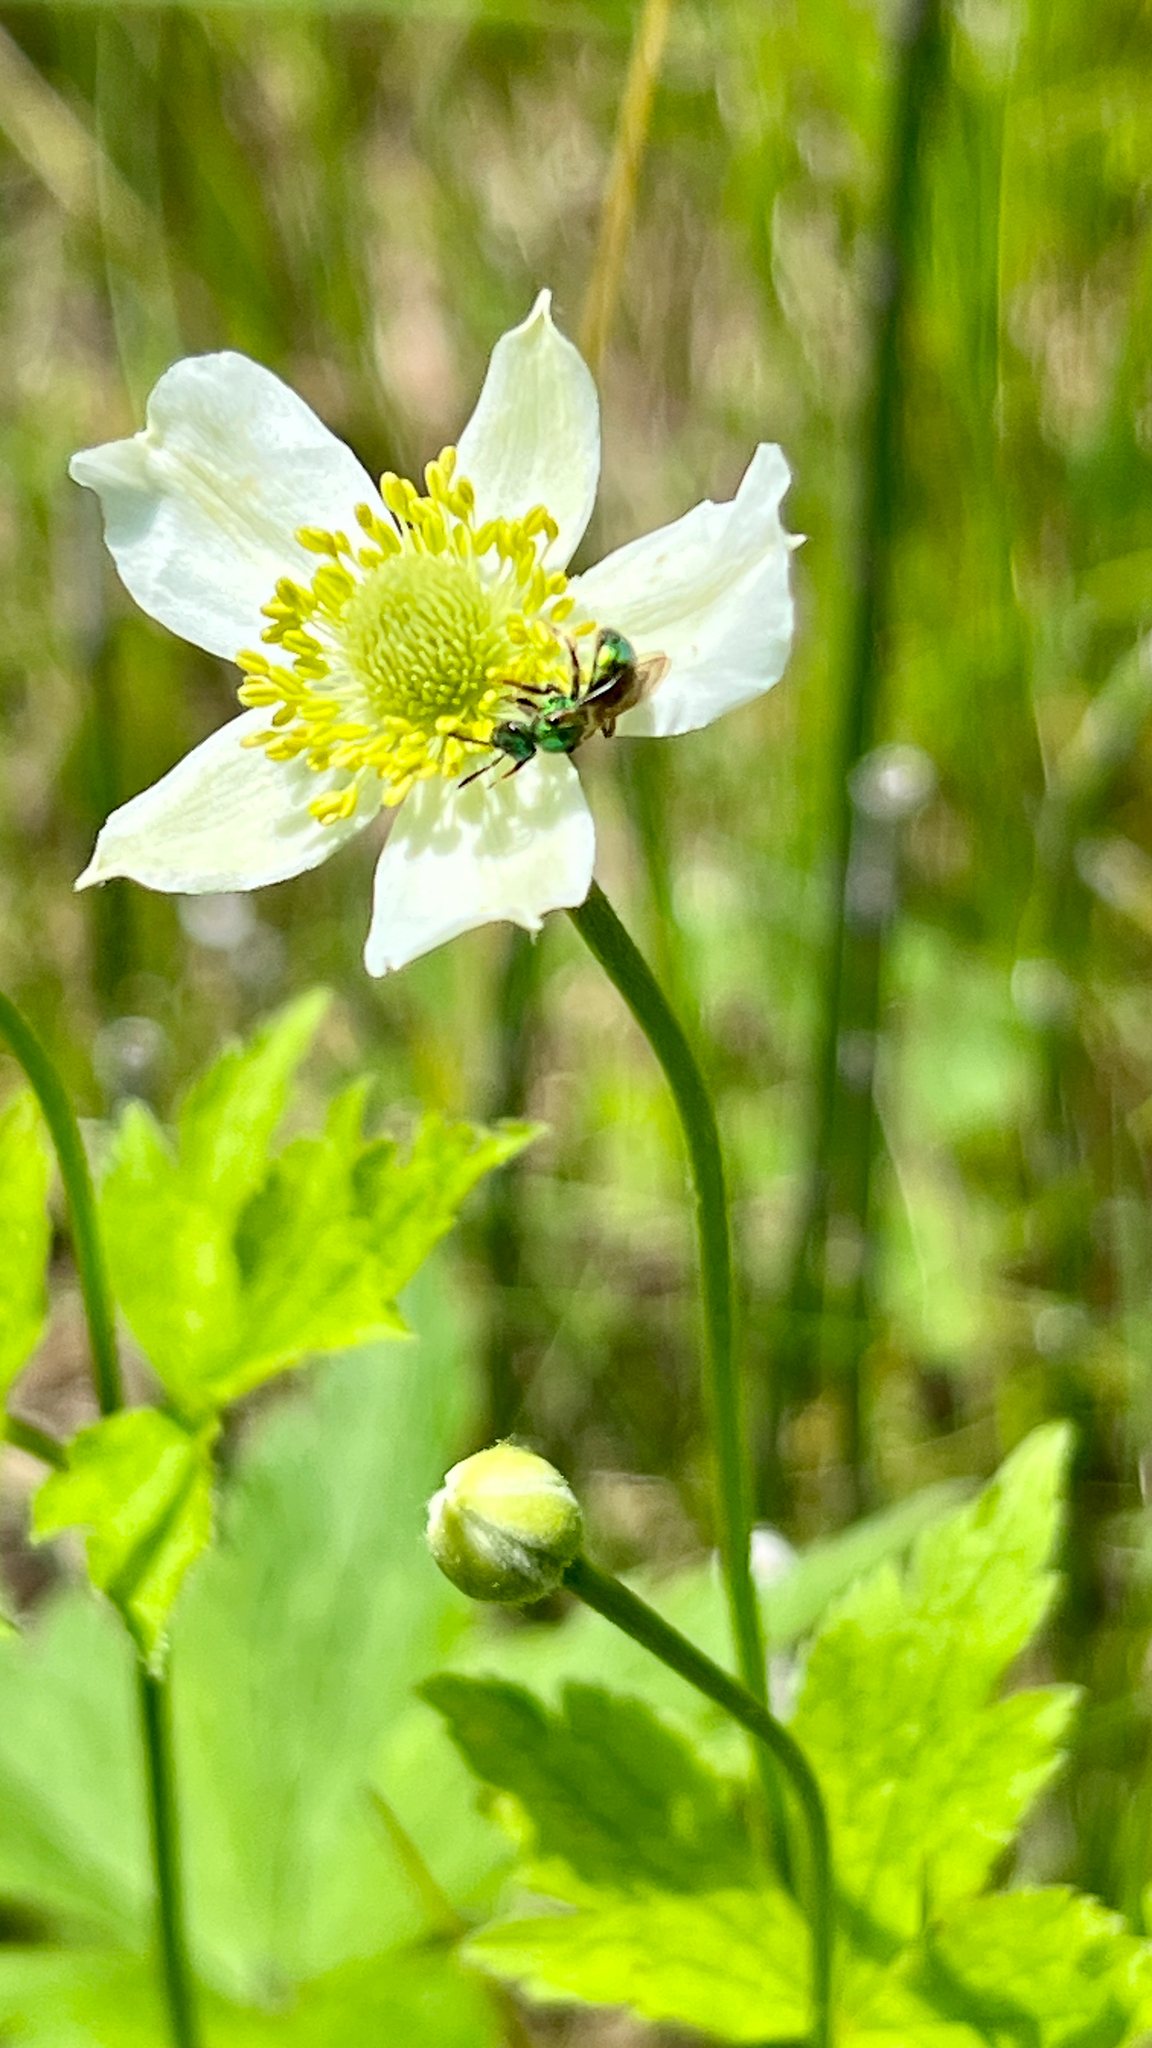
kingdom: Plantae
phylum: Tracheophyta
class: Magnoliopsida
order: Ranunculales
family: Ranunculaceae
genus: Anemone
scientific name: Anemone virginiana
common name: Tall anemone
